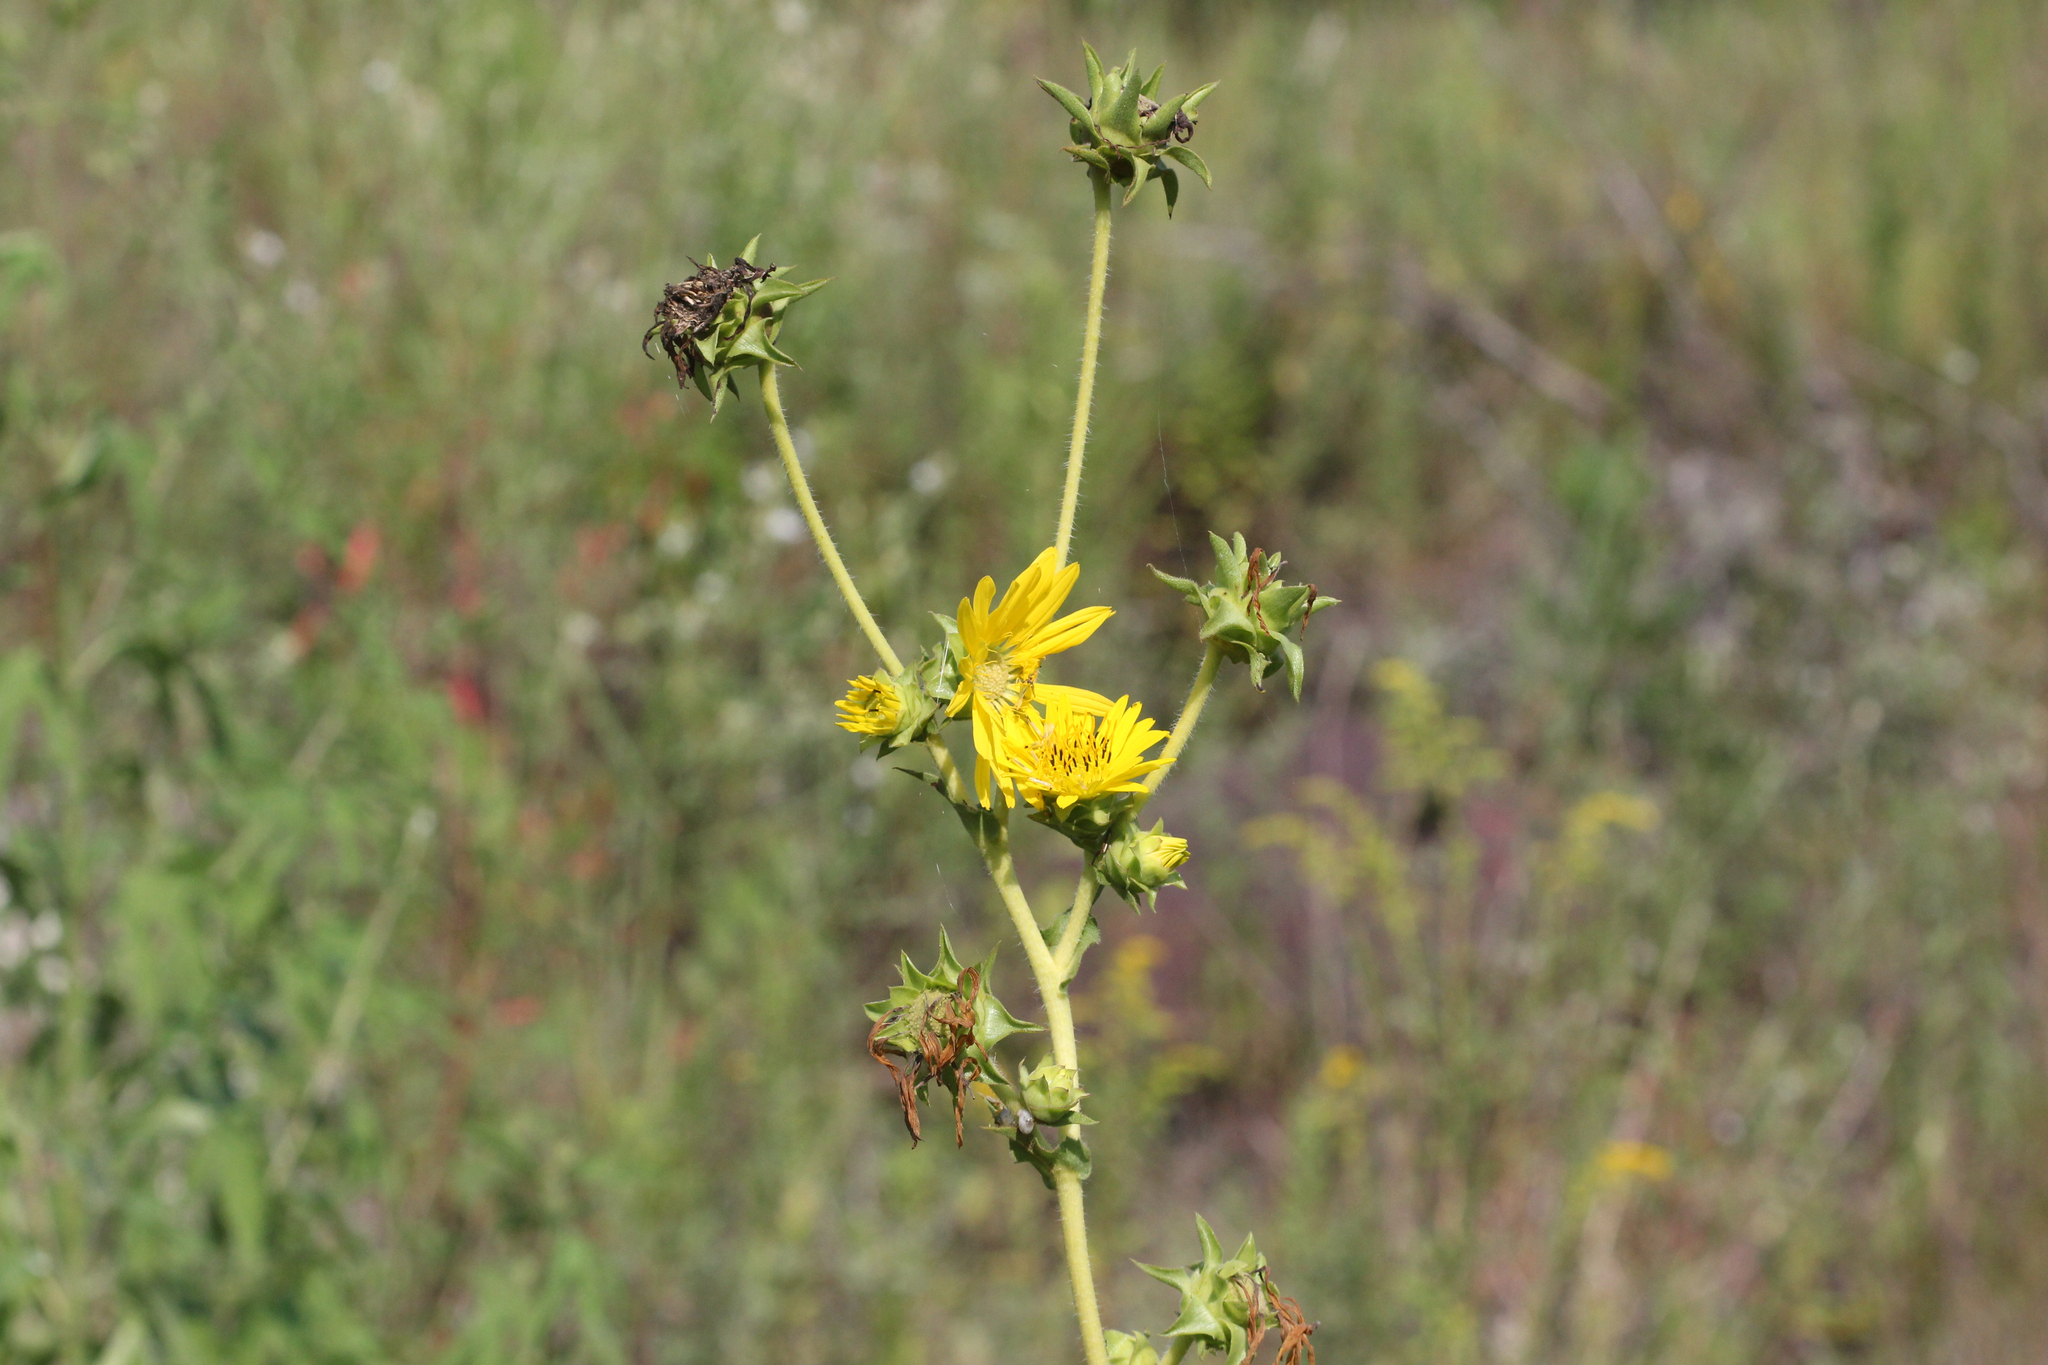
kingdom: Plantae
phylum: Tracheophyta
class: Magnoliopsida
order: Asterales
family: Asteraceae
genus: Silphium
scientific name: Silphium laciniatum
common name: Polarplant
